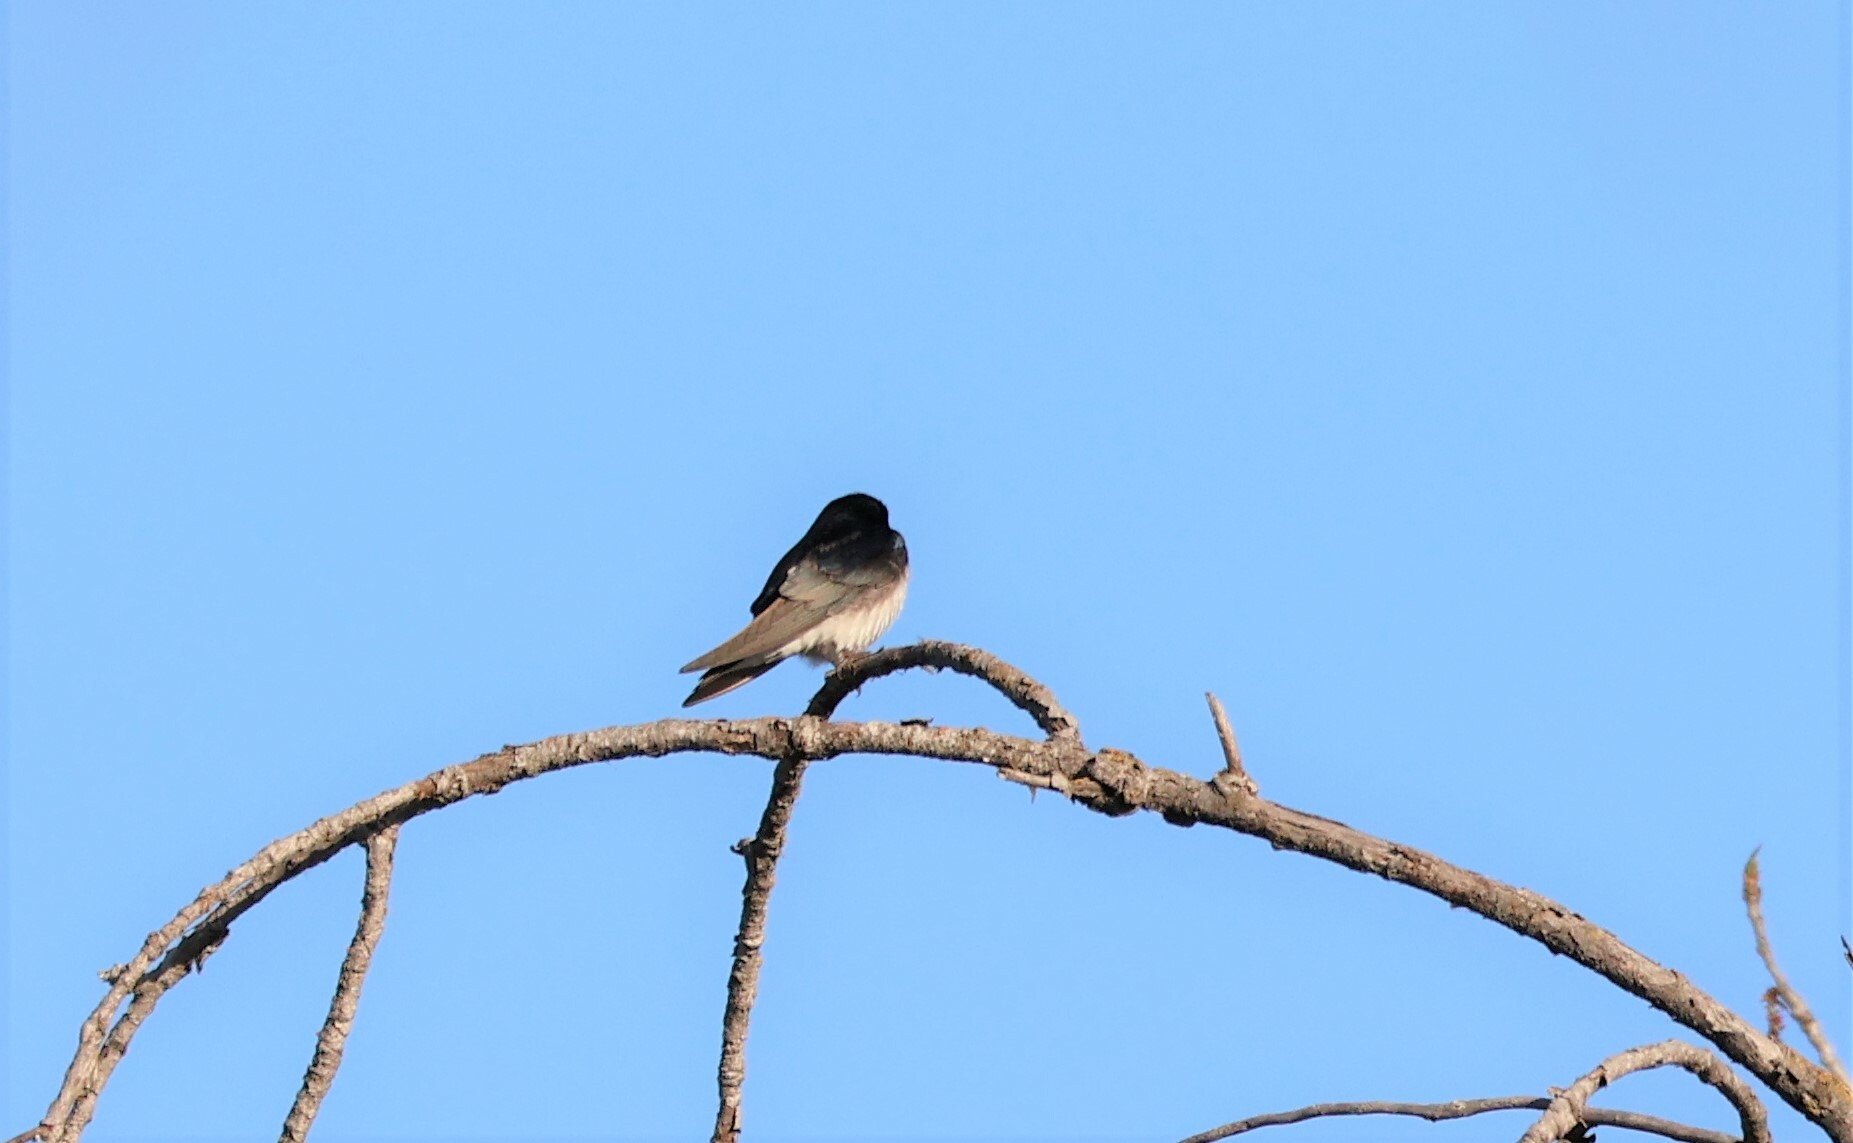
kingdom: Animalia
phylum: Chordata
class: Aves
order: Passeriformes
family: Hirundinidae
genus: Tachycineta
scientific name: Tachycineta bicolor
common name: Tree swallow
